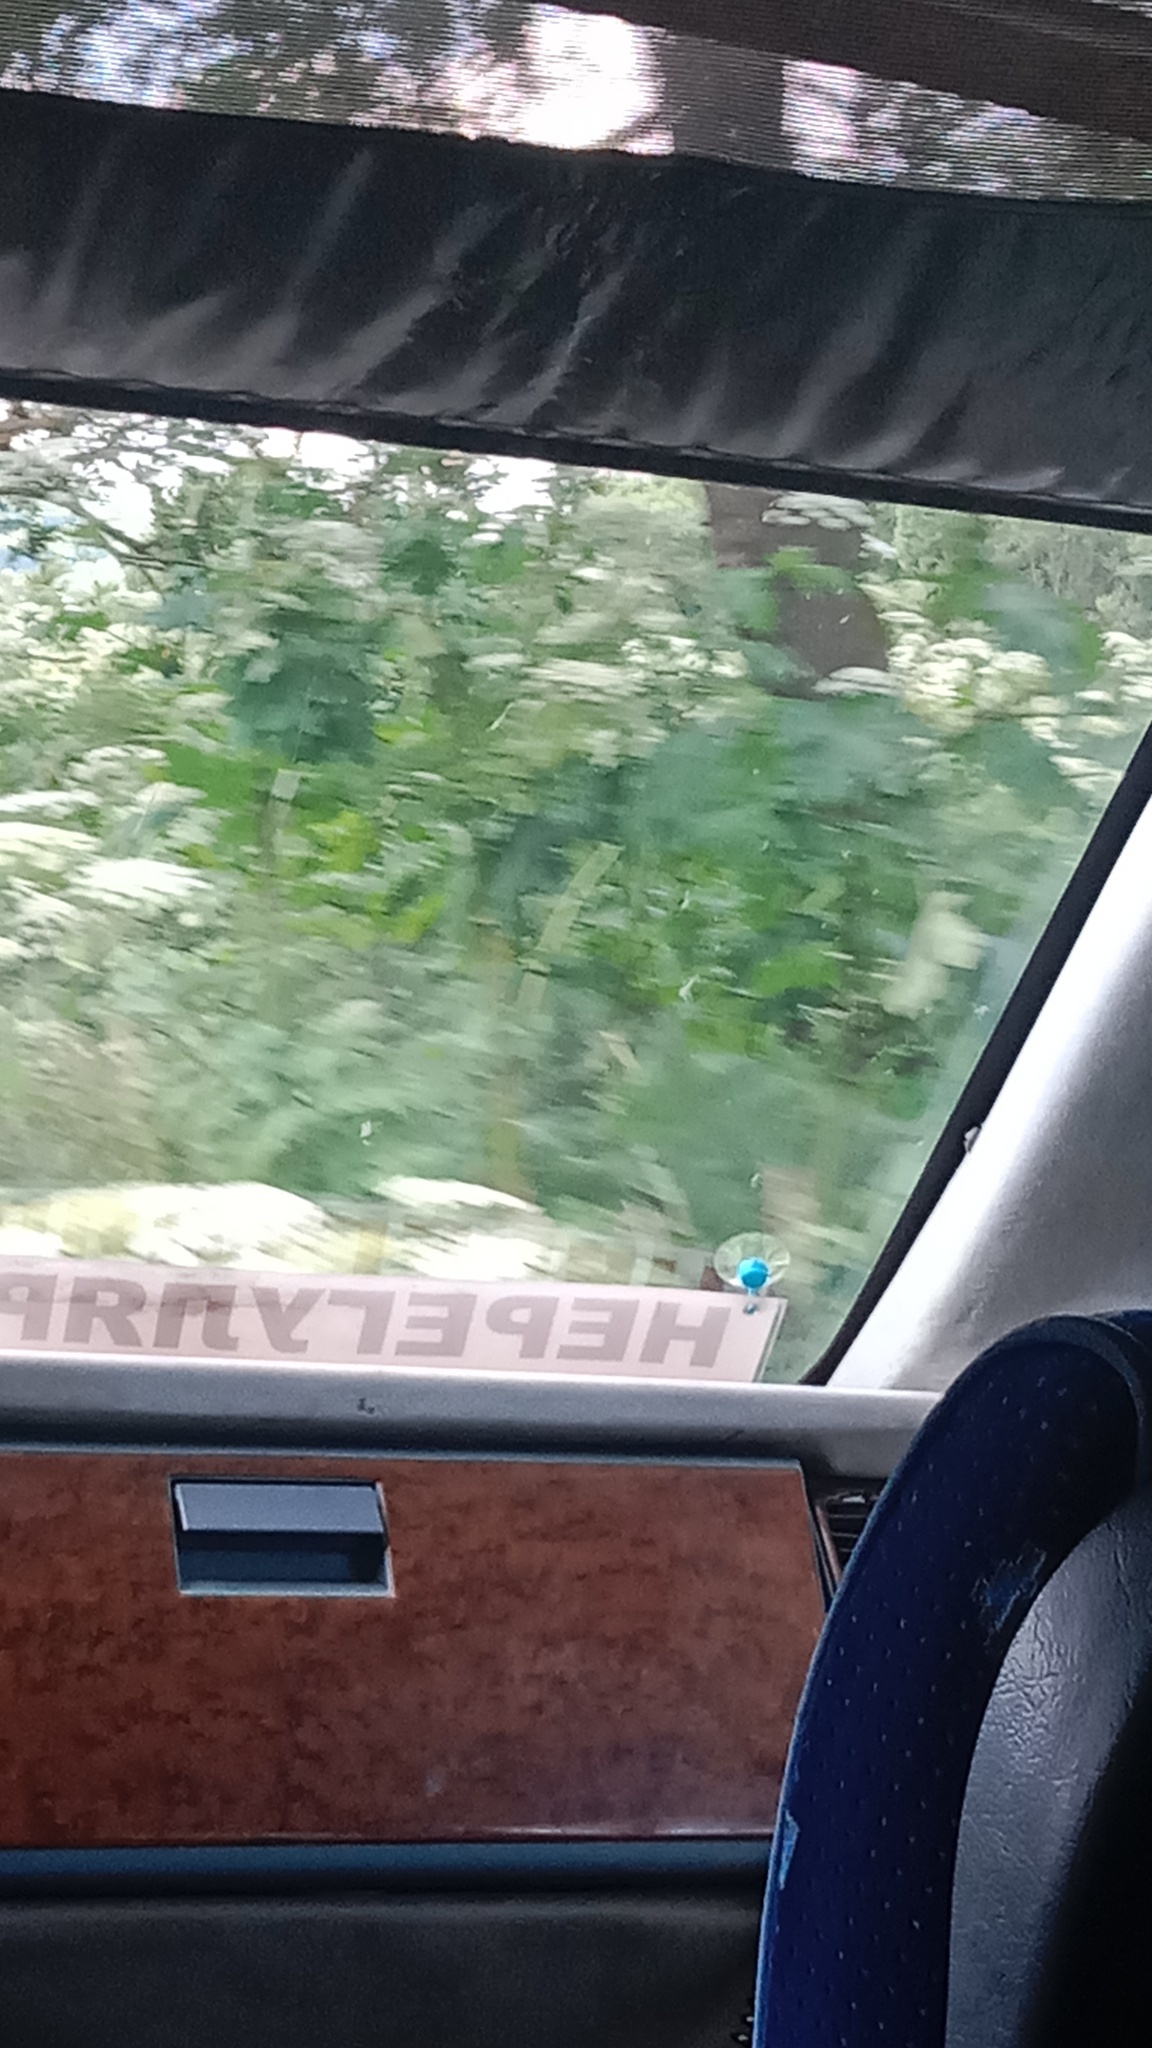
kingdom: Plantae
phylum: Tracheophyta
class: Magnoliopsida
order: Apiales
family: Apiaceae
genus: Heracleum
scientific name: Heracleum sosnowskyi
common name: Sosnowsky's hogweed
